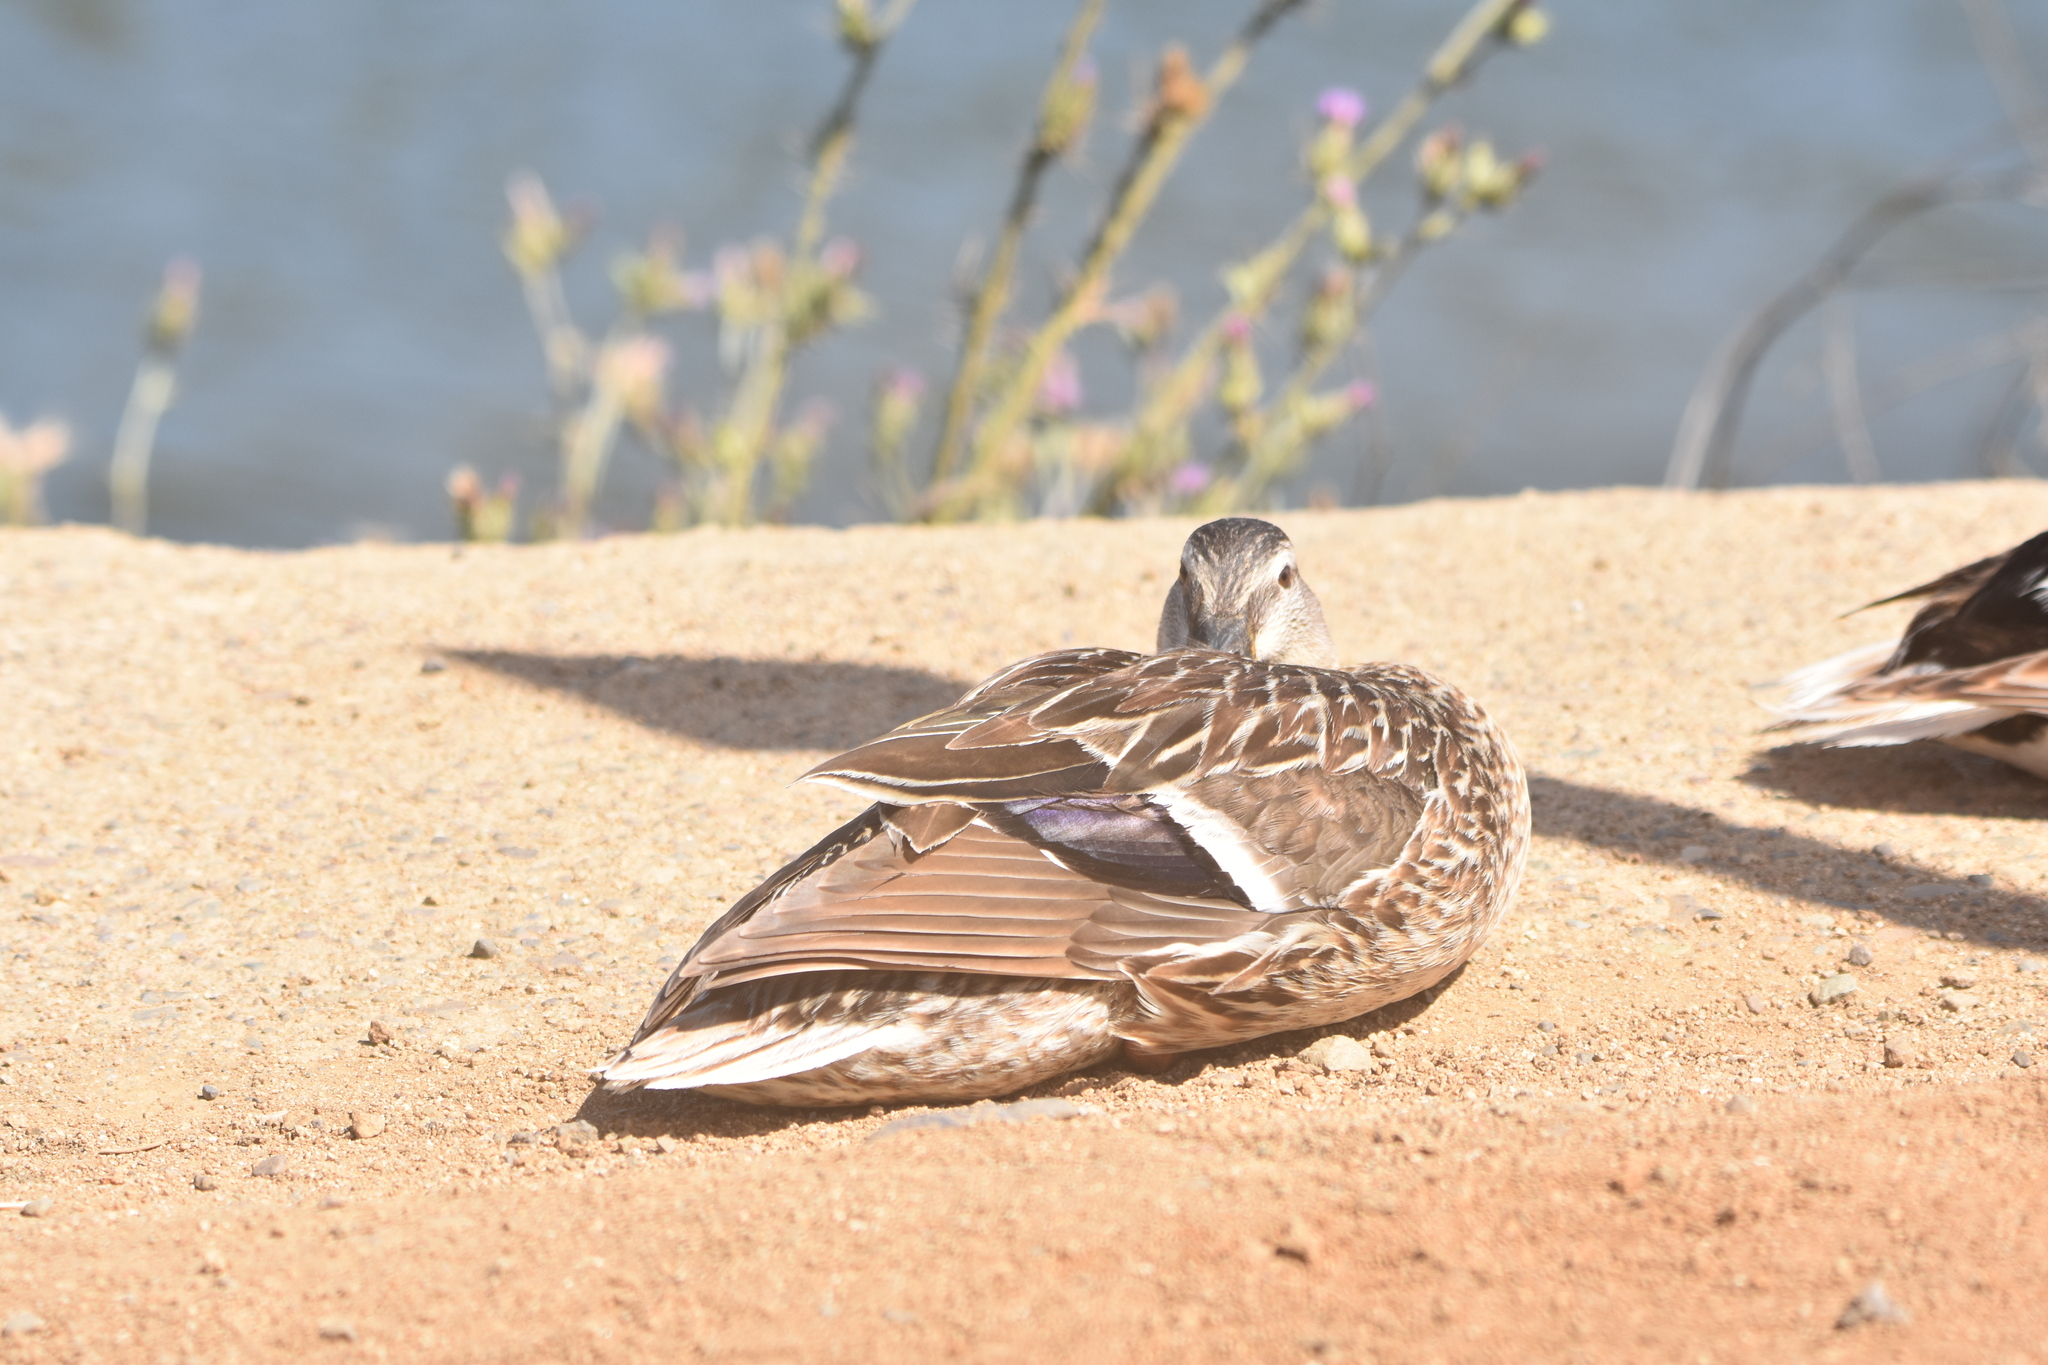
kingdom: Animalia
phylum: Chordata
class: Aves
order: Anseriformes
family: Anatidae
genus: Anas
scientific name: Anas platyrhynchos
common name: Mallard
